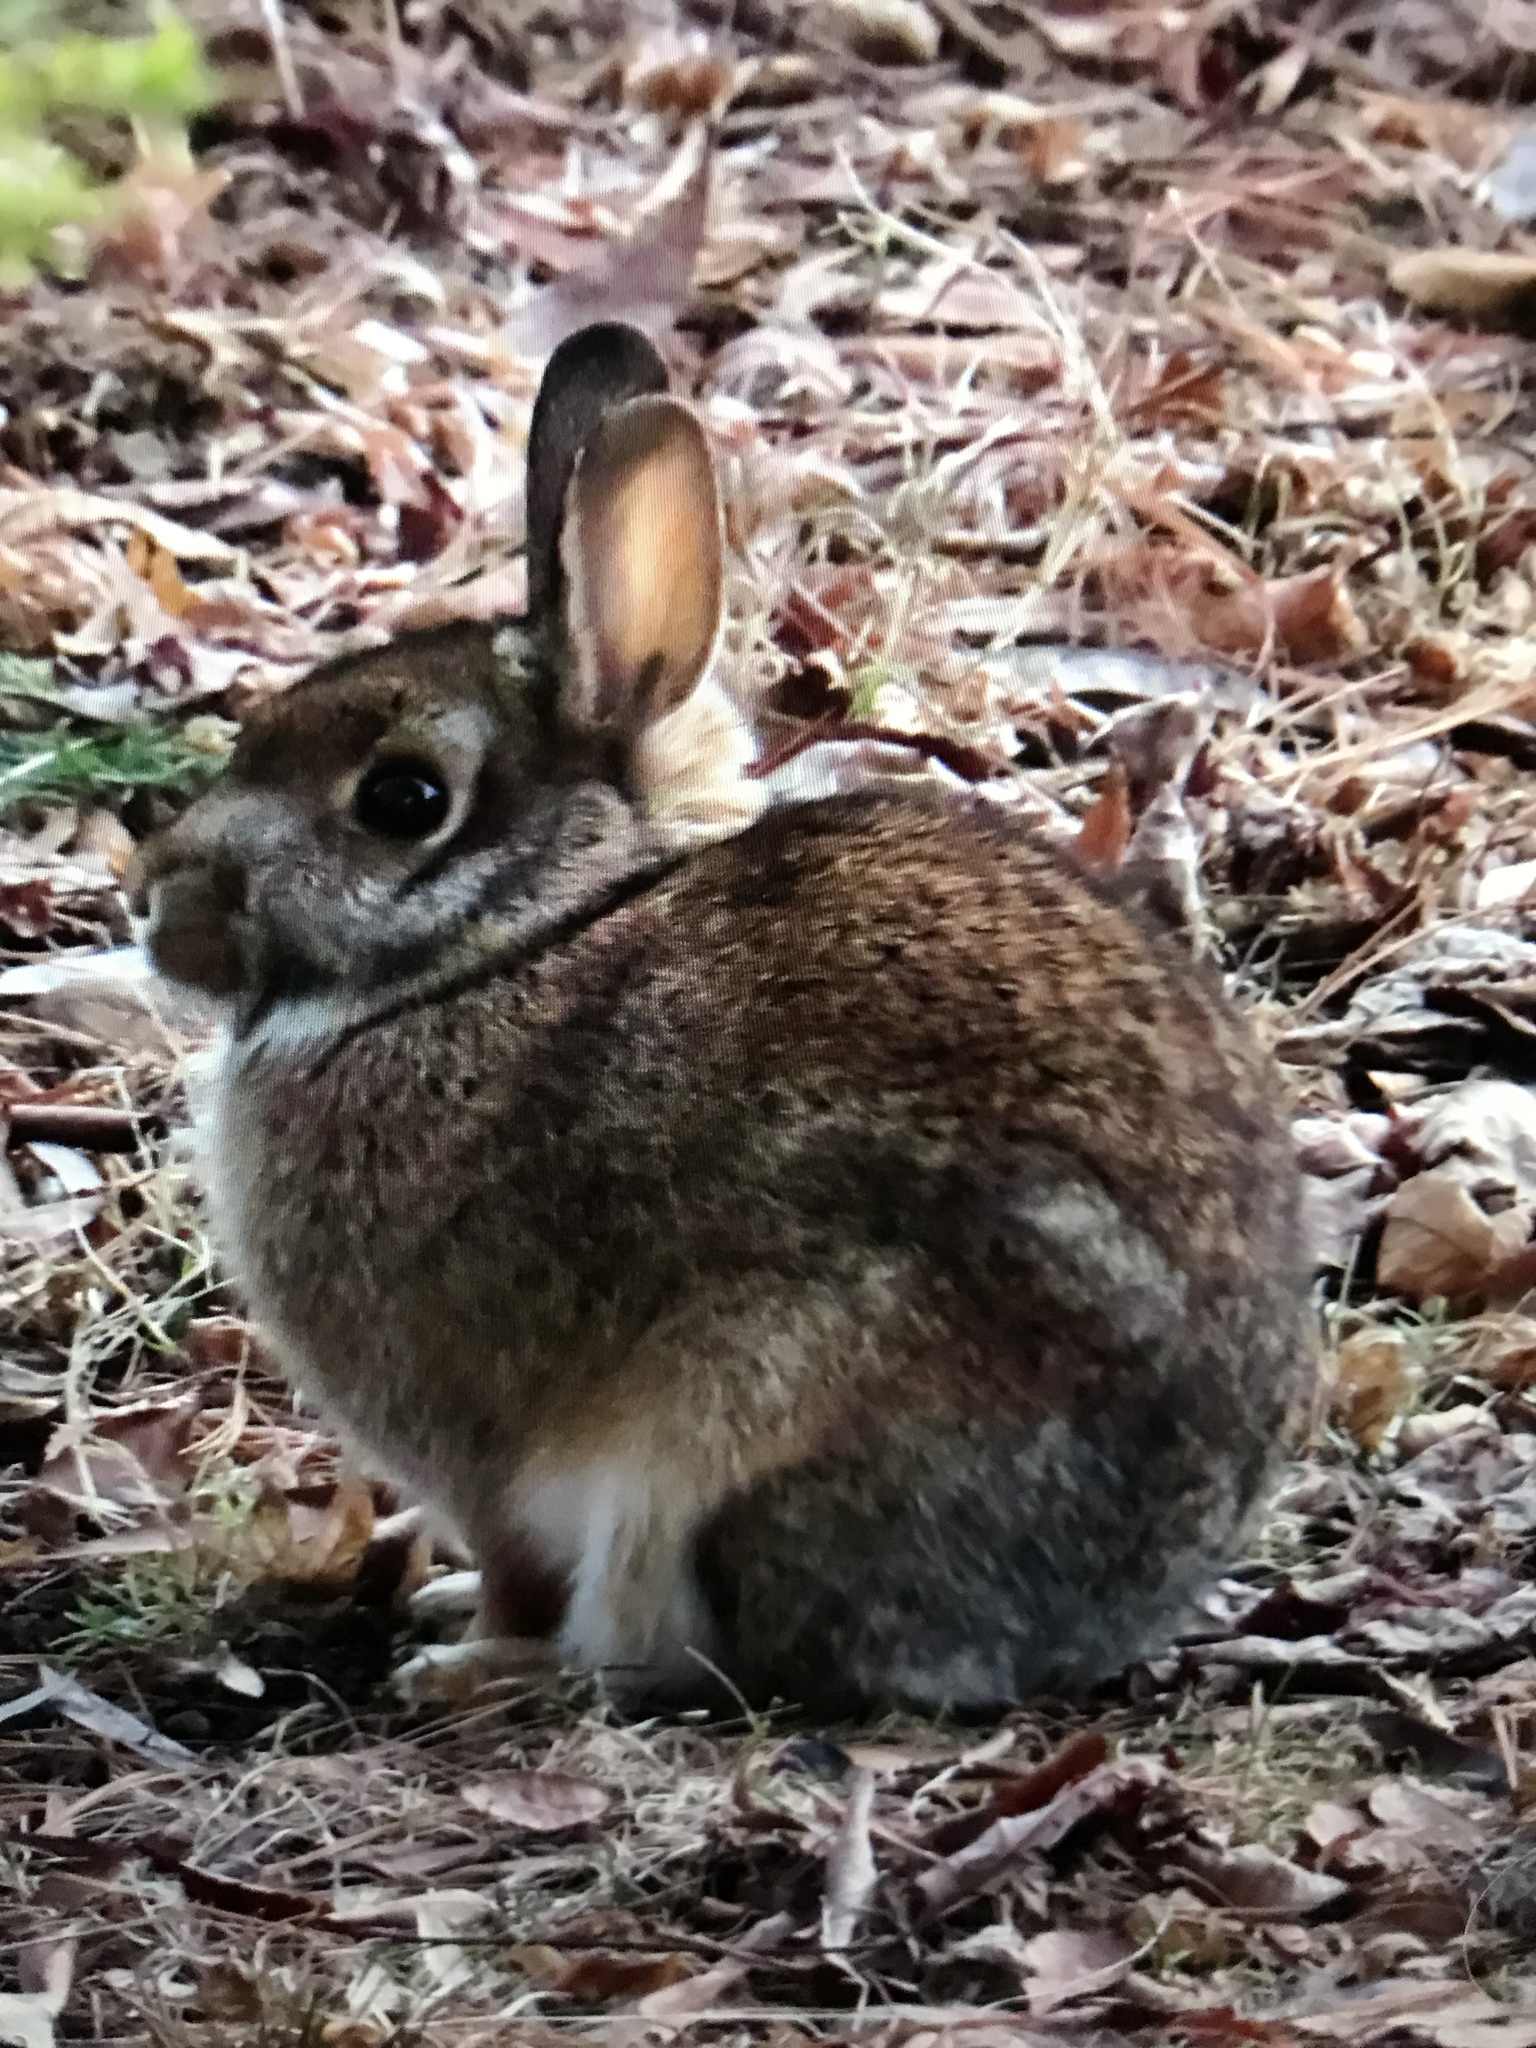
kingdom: Animalia
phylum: Chordata
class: Mammalia
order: Lagomorpha
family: Leporidae
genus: Sylvilagus
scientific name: Sylvilagus floridanus
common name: Eastern cottontail
